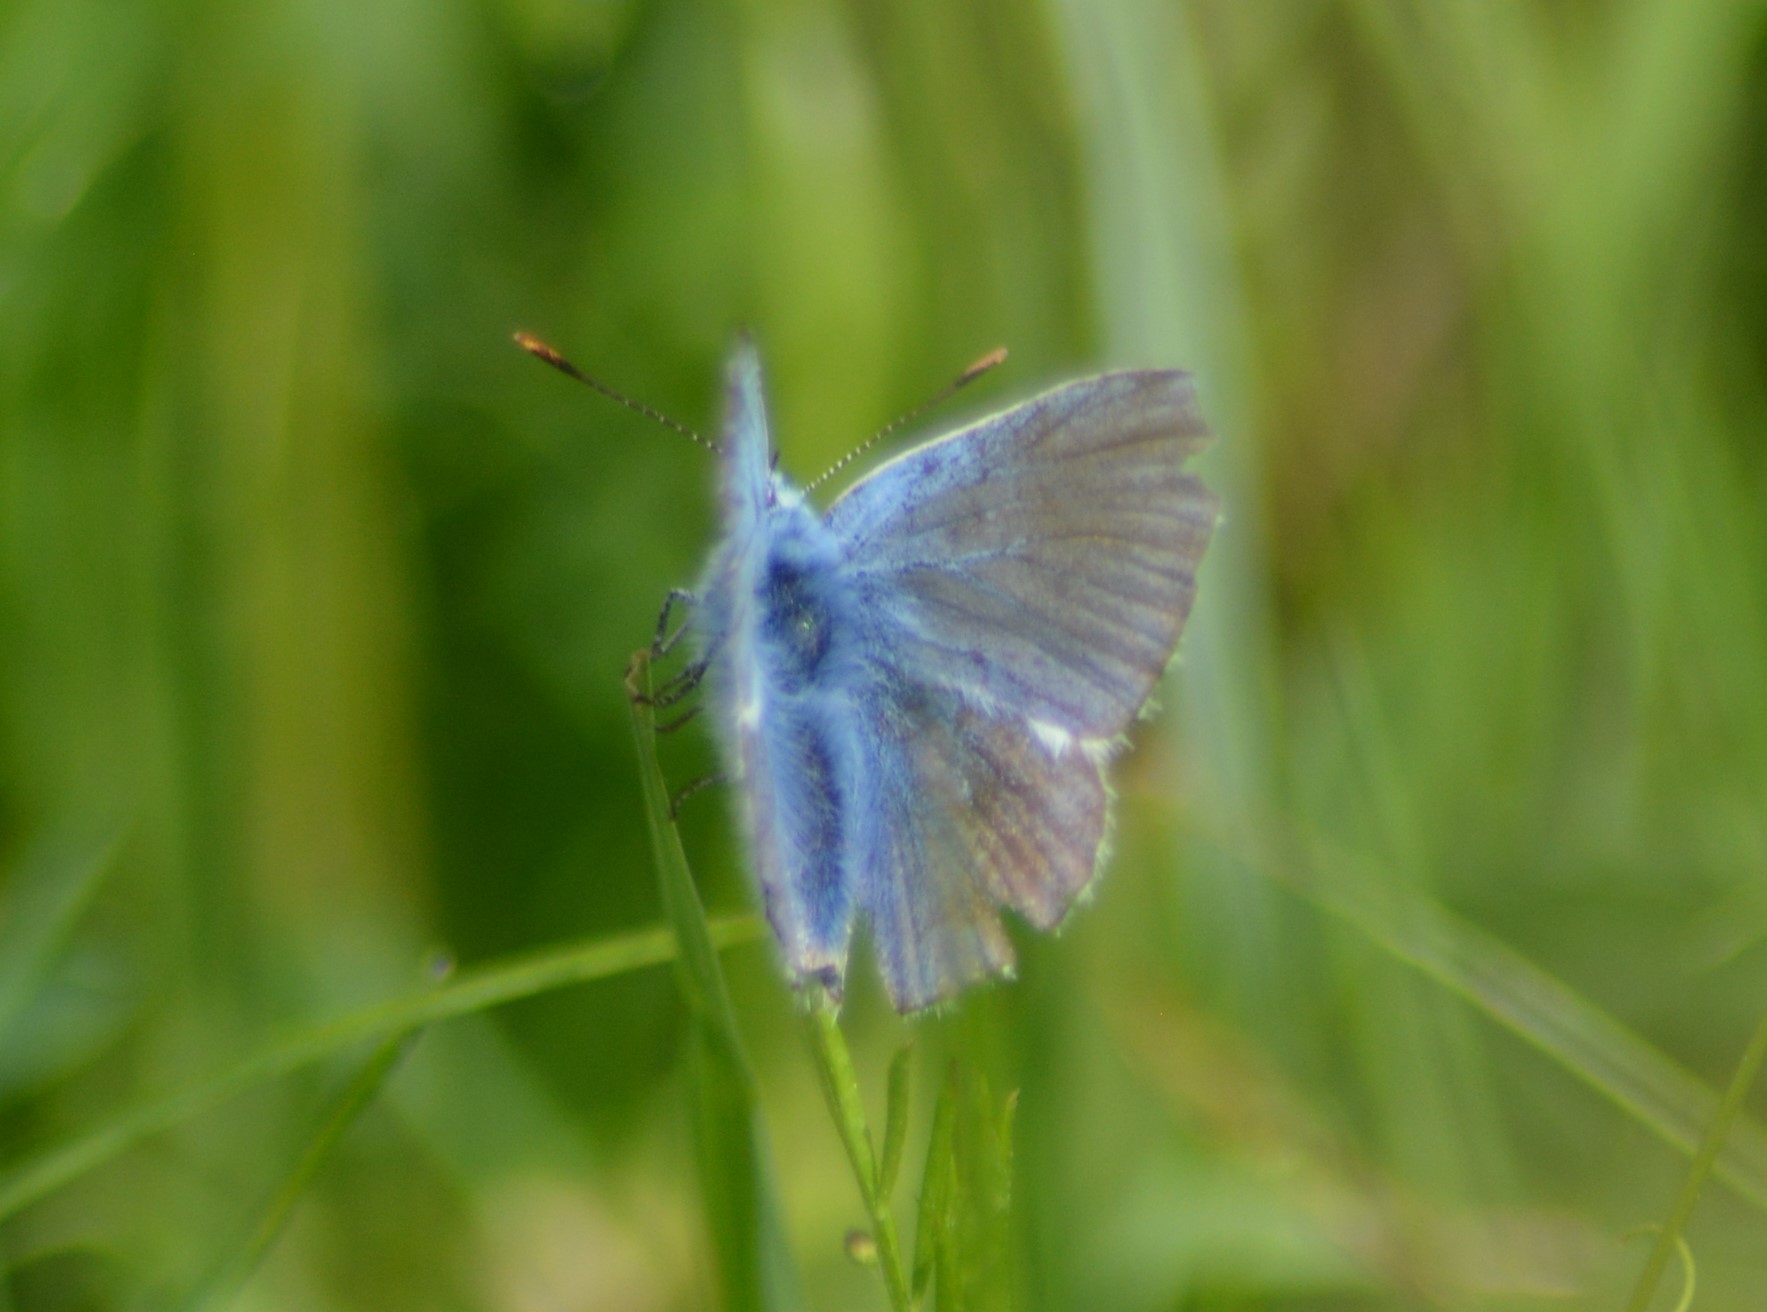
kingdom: Animalia
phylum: Arthropoda
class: Insecta
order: Lepidoptera
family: Lycaenidae
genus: Polyommatus
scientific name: Polyommatus icarus
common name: Common blue
